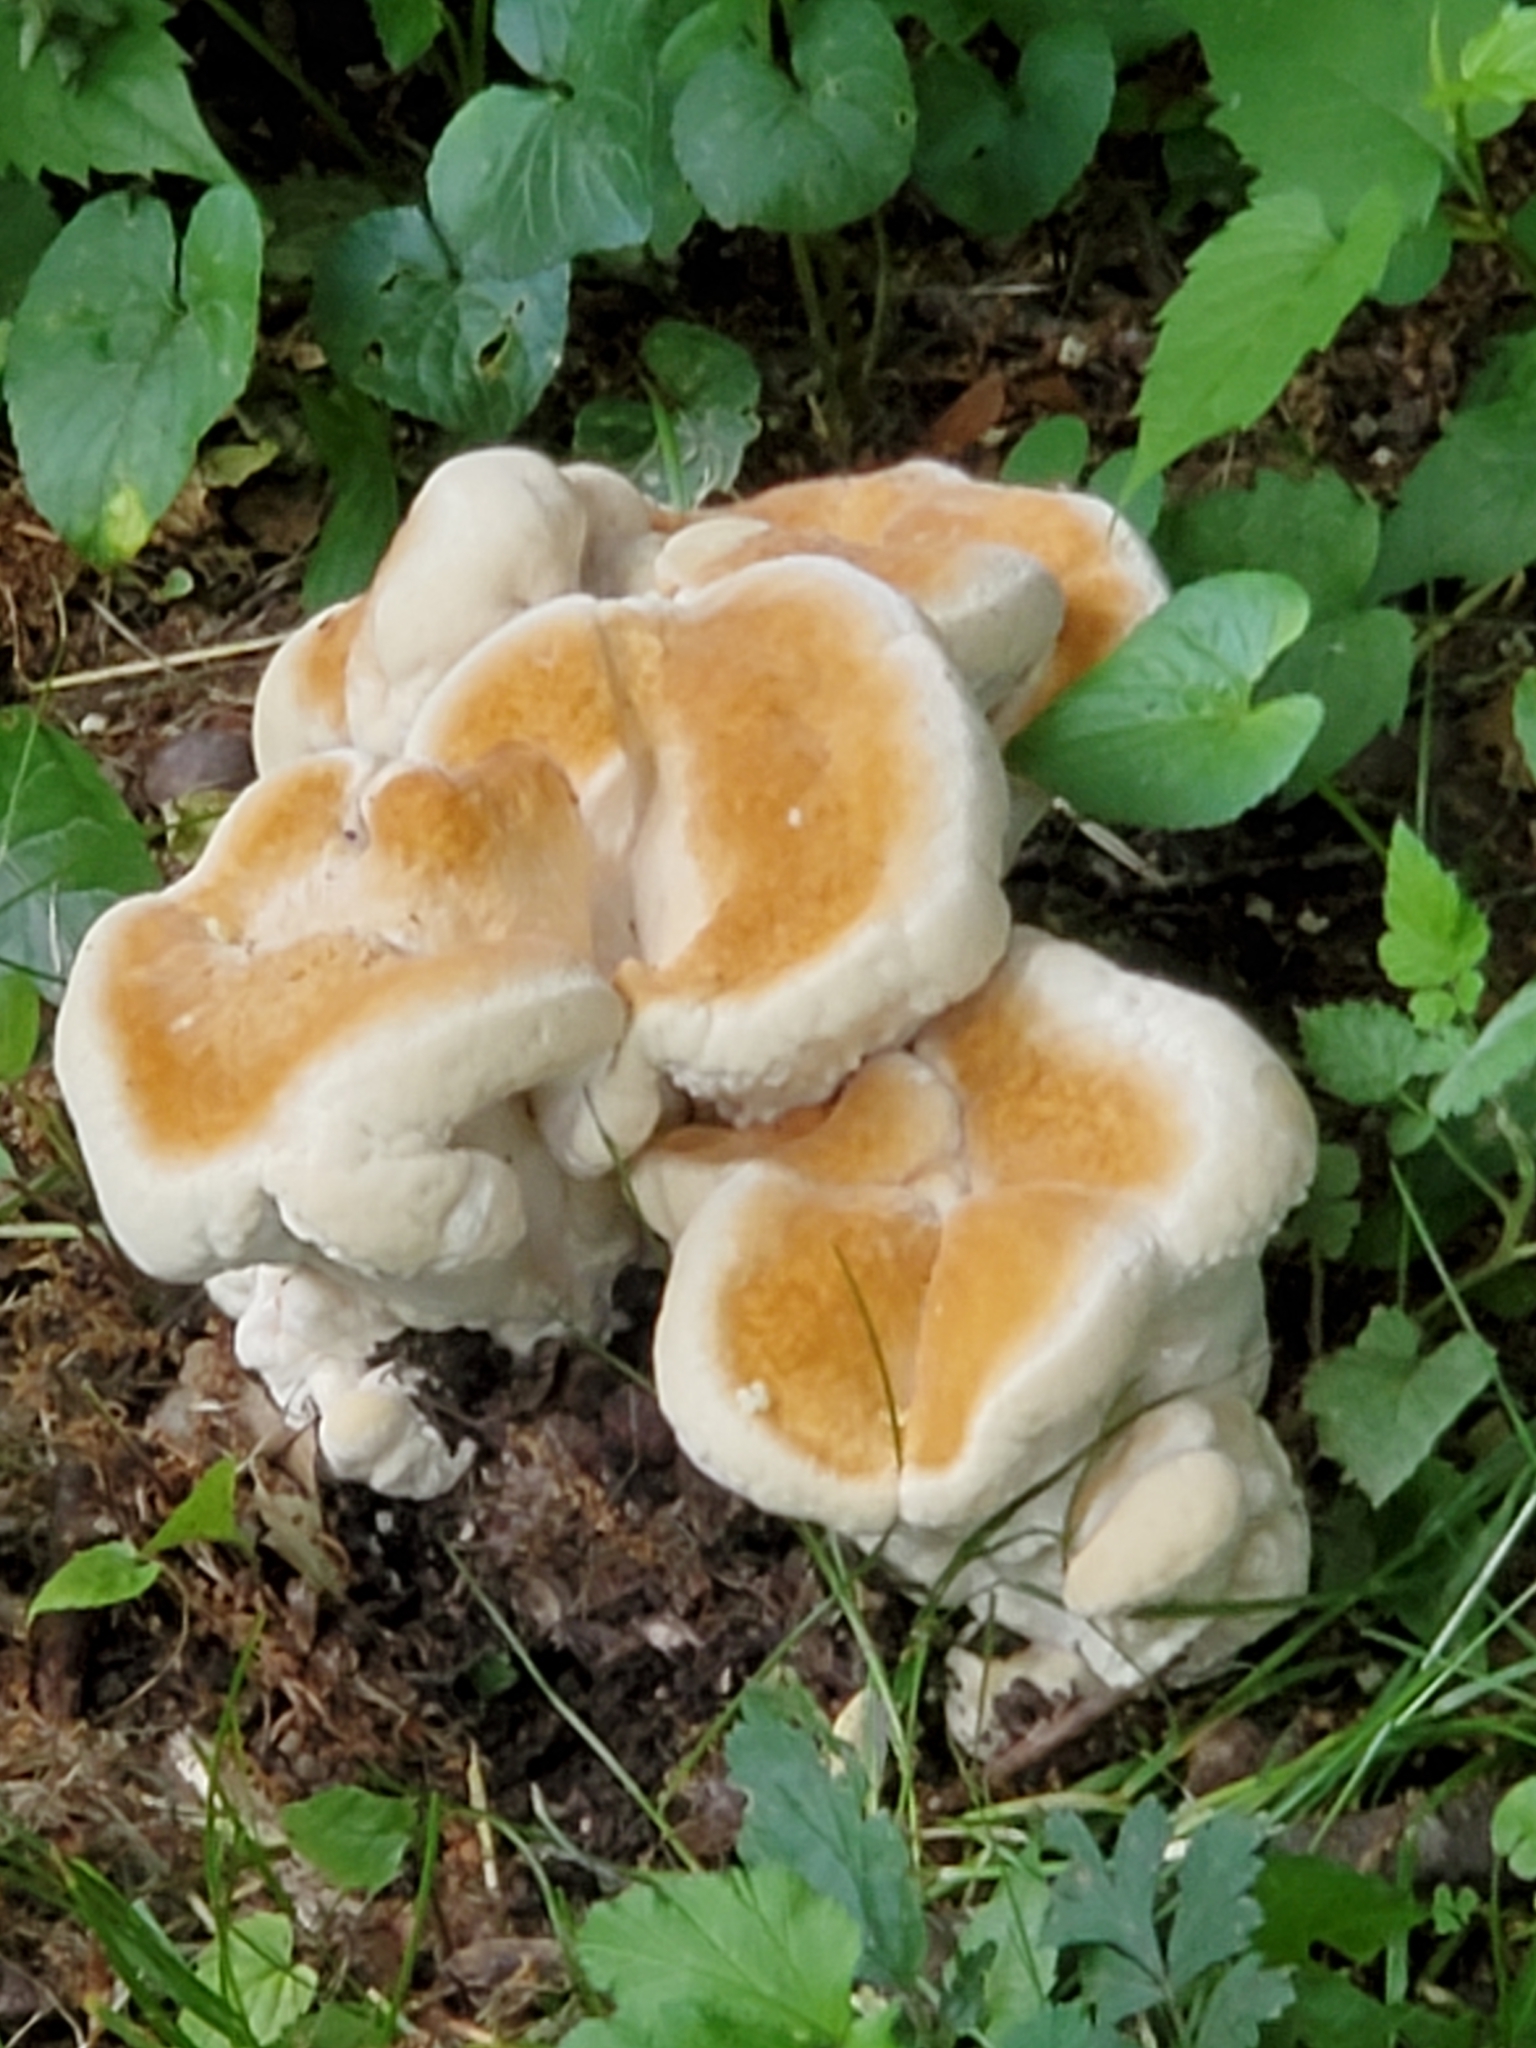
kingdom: Fungi
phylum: Basidiomycota
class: Agaricomycetes
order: Russulales
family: Bondarzewiaceae
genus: Bondarzewia
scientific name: Bondarzewia berkeleyi
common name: Berkeley's polypore
